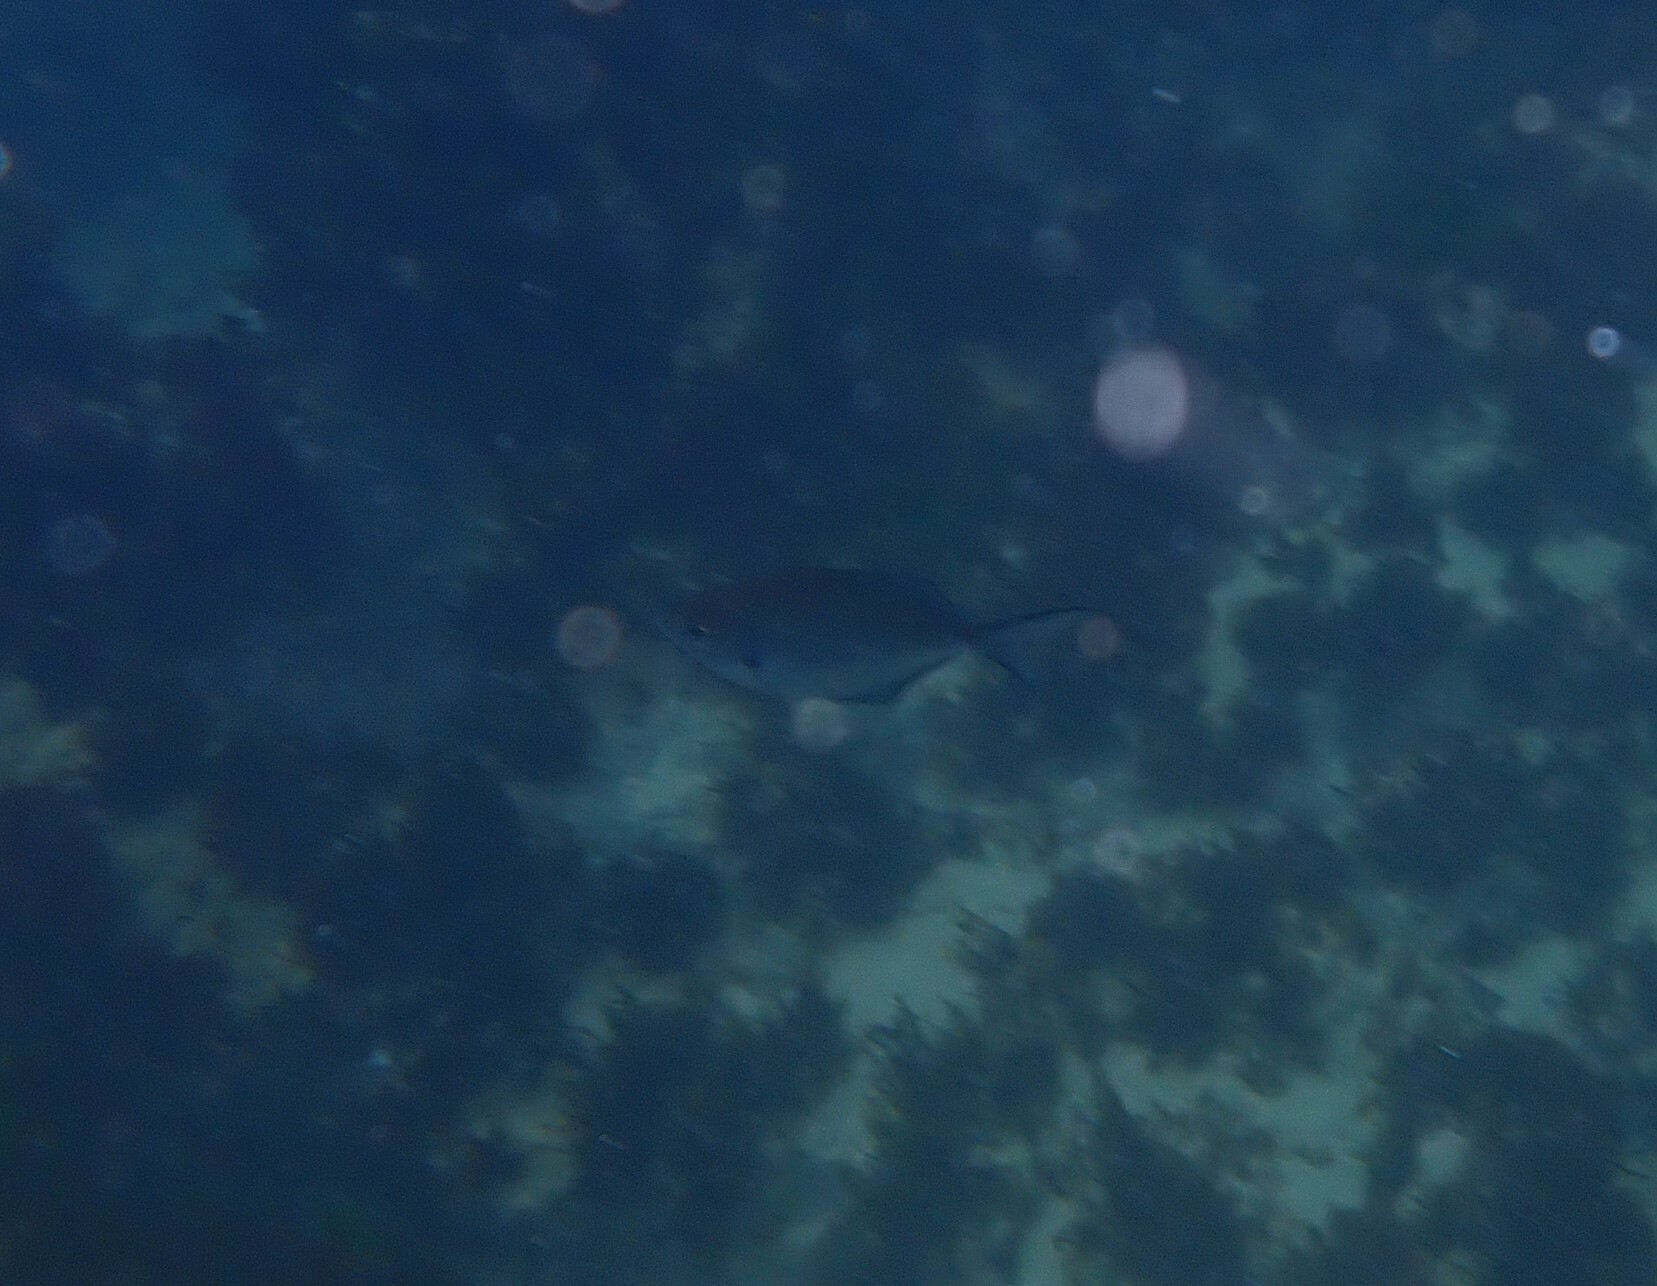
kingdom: Animalia
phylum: Chordata
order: Perciformes
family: Kyphosidae
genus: Scorpis
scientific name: Scorpis lineolata
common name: Sweep
